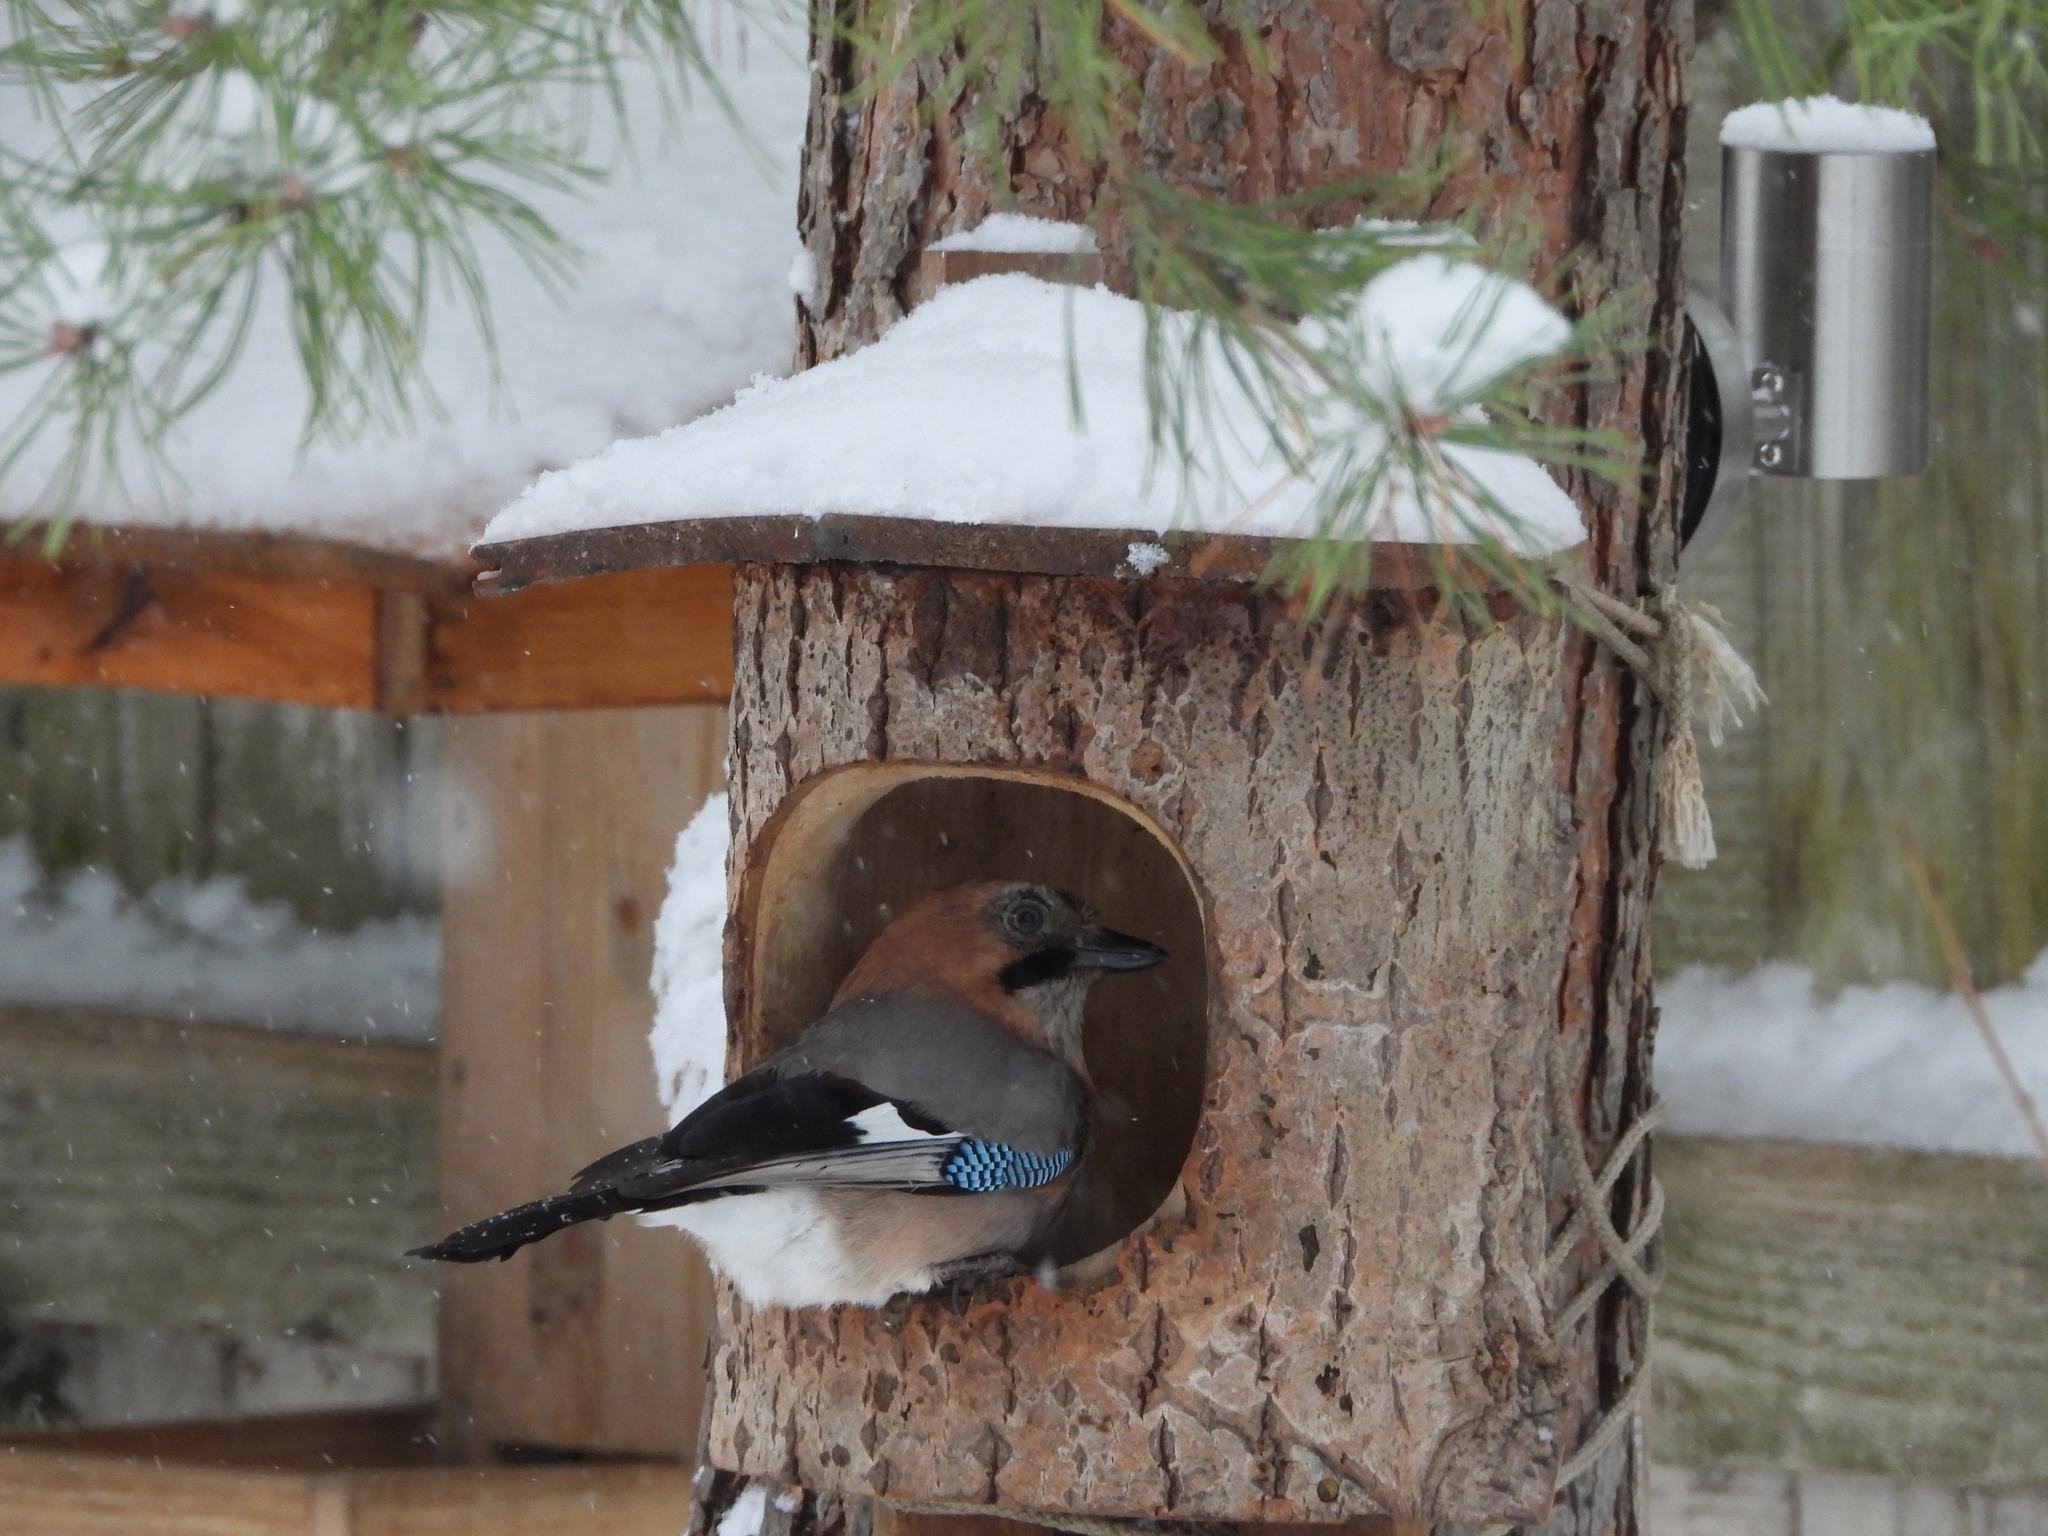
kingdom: Animalia
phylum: Chordata
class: Aves
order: Passeriformes
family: Corvidae
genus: Garrulus
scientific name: Garrulus glandarius
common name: Eurasian jay
